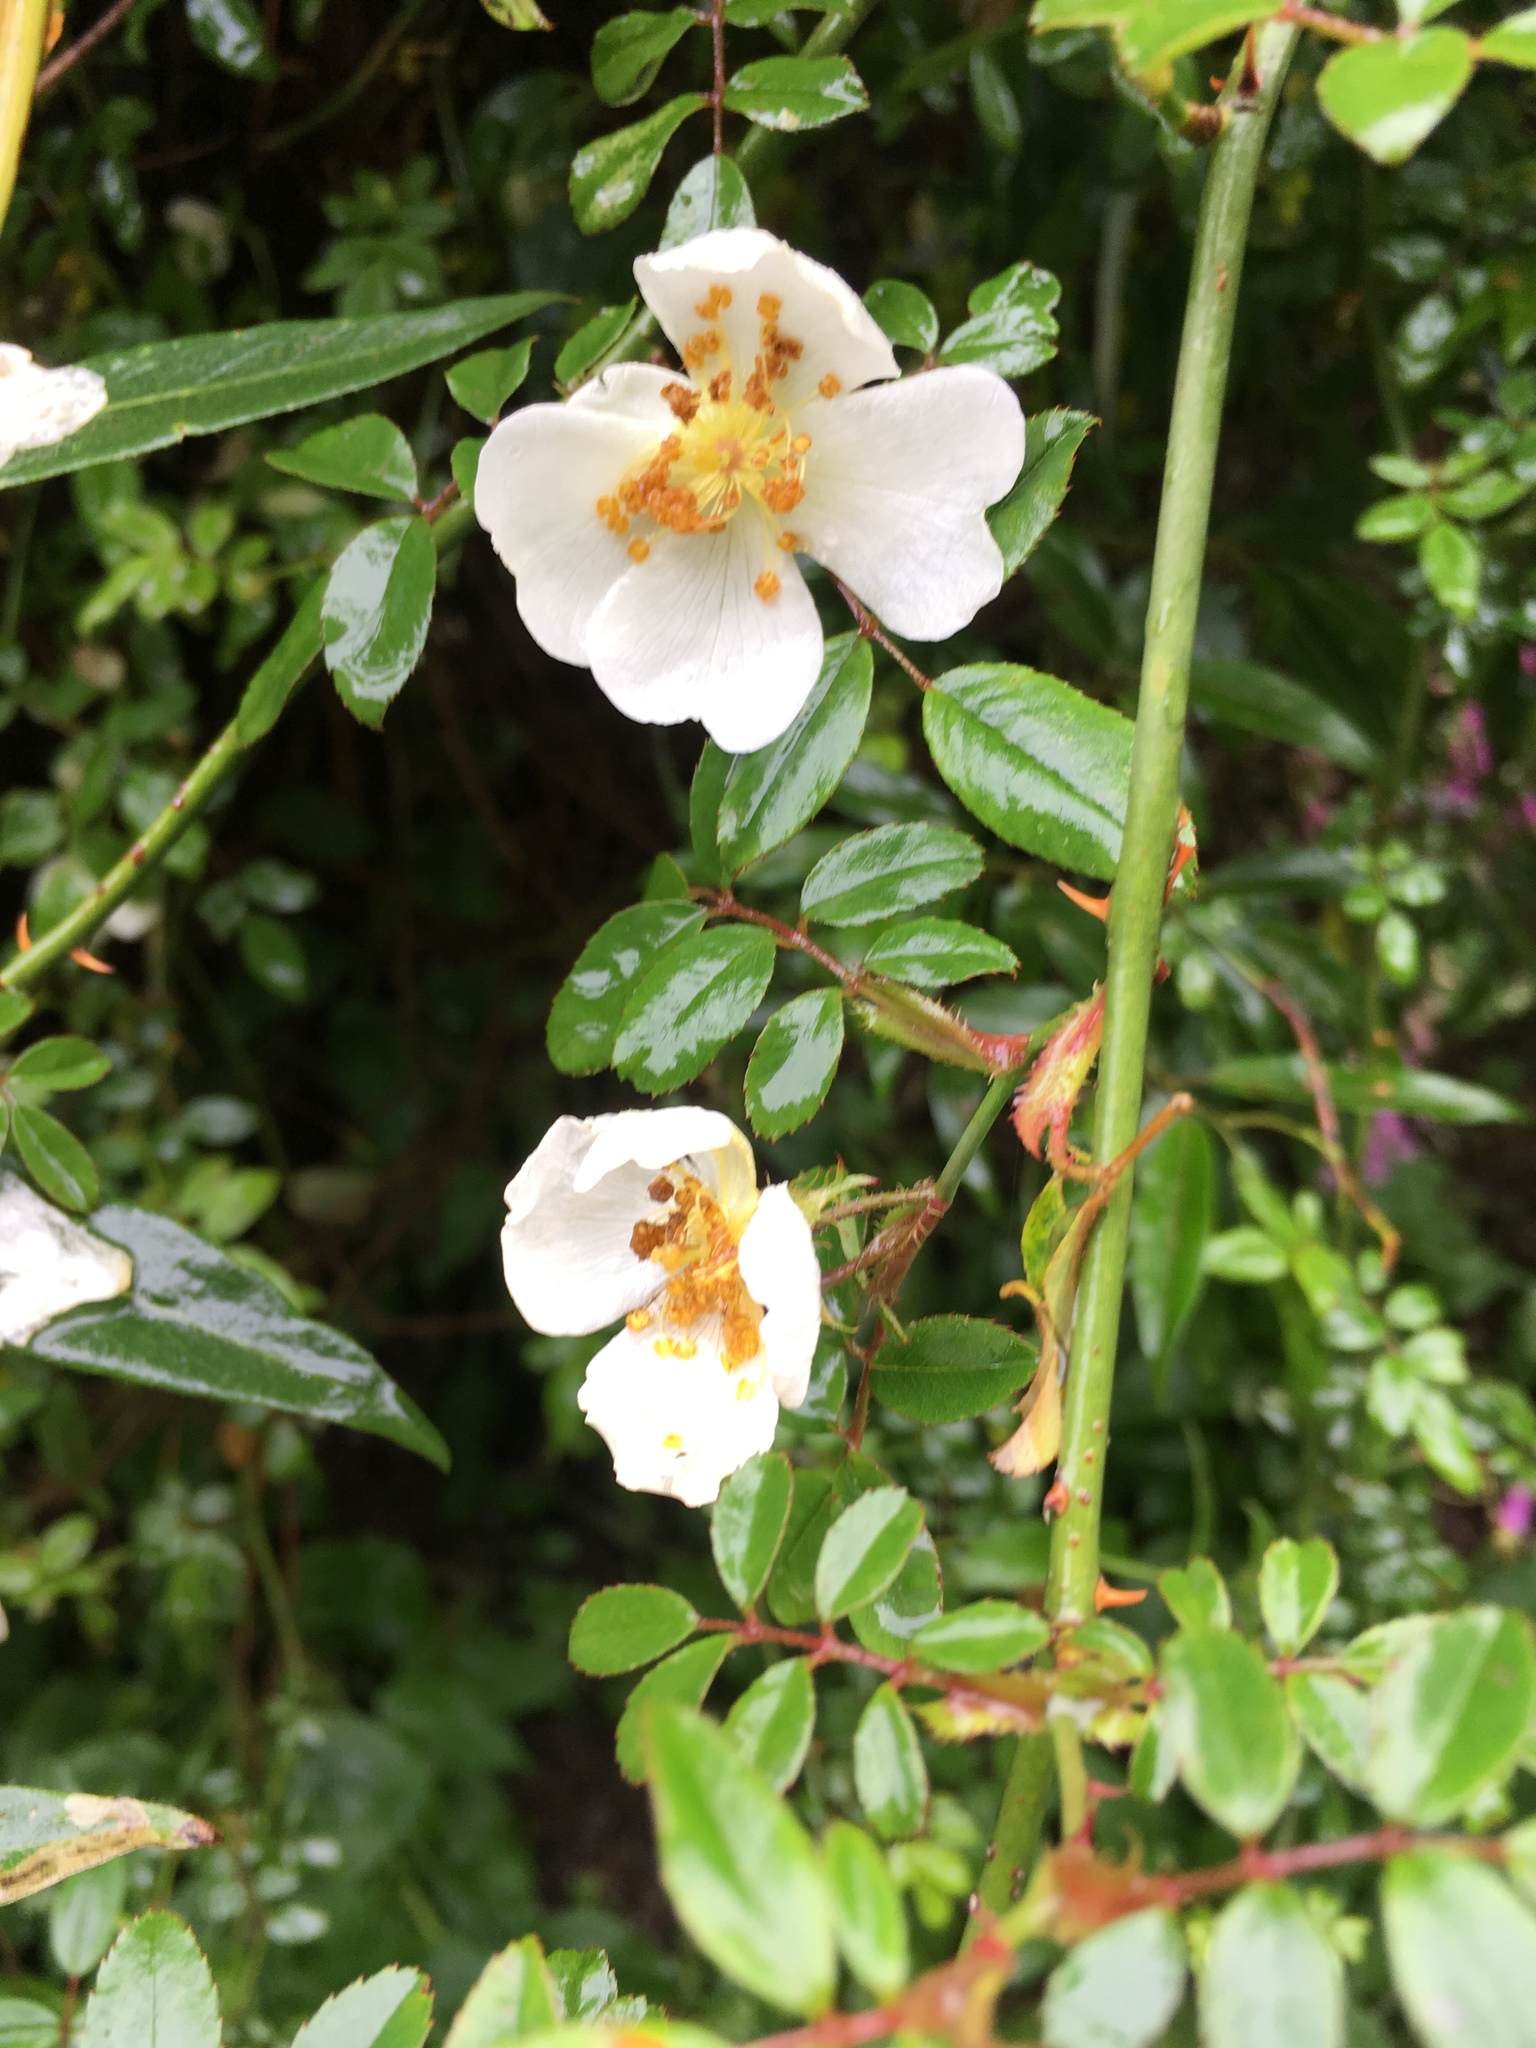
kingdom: Plantae
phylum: Tracheophyta
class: Magnoliopsida
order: Rosales
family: Rosaceae
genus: Rosa
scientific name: Rosa transmorrisonensis
